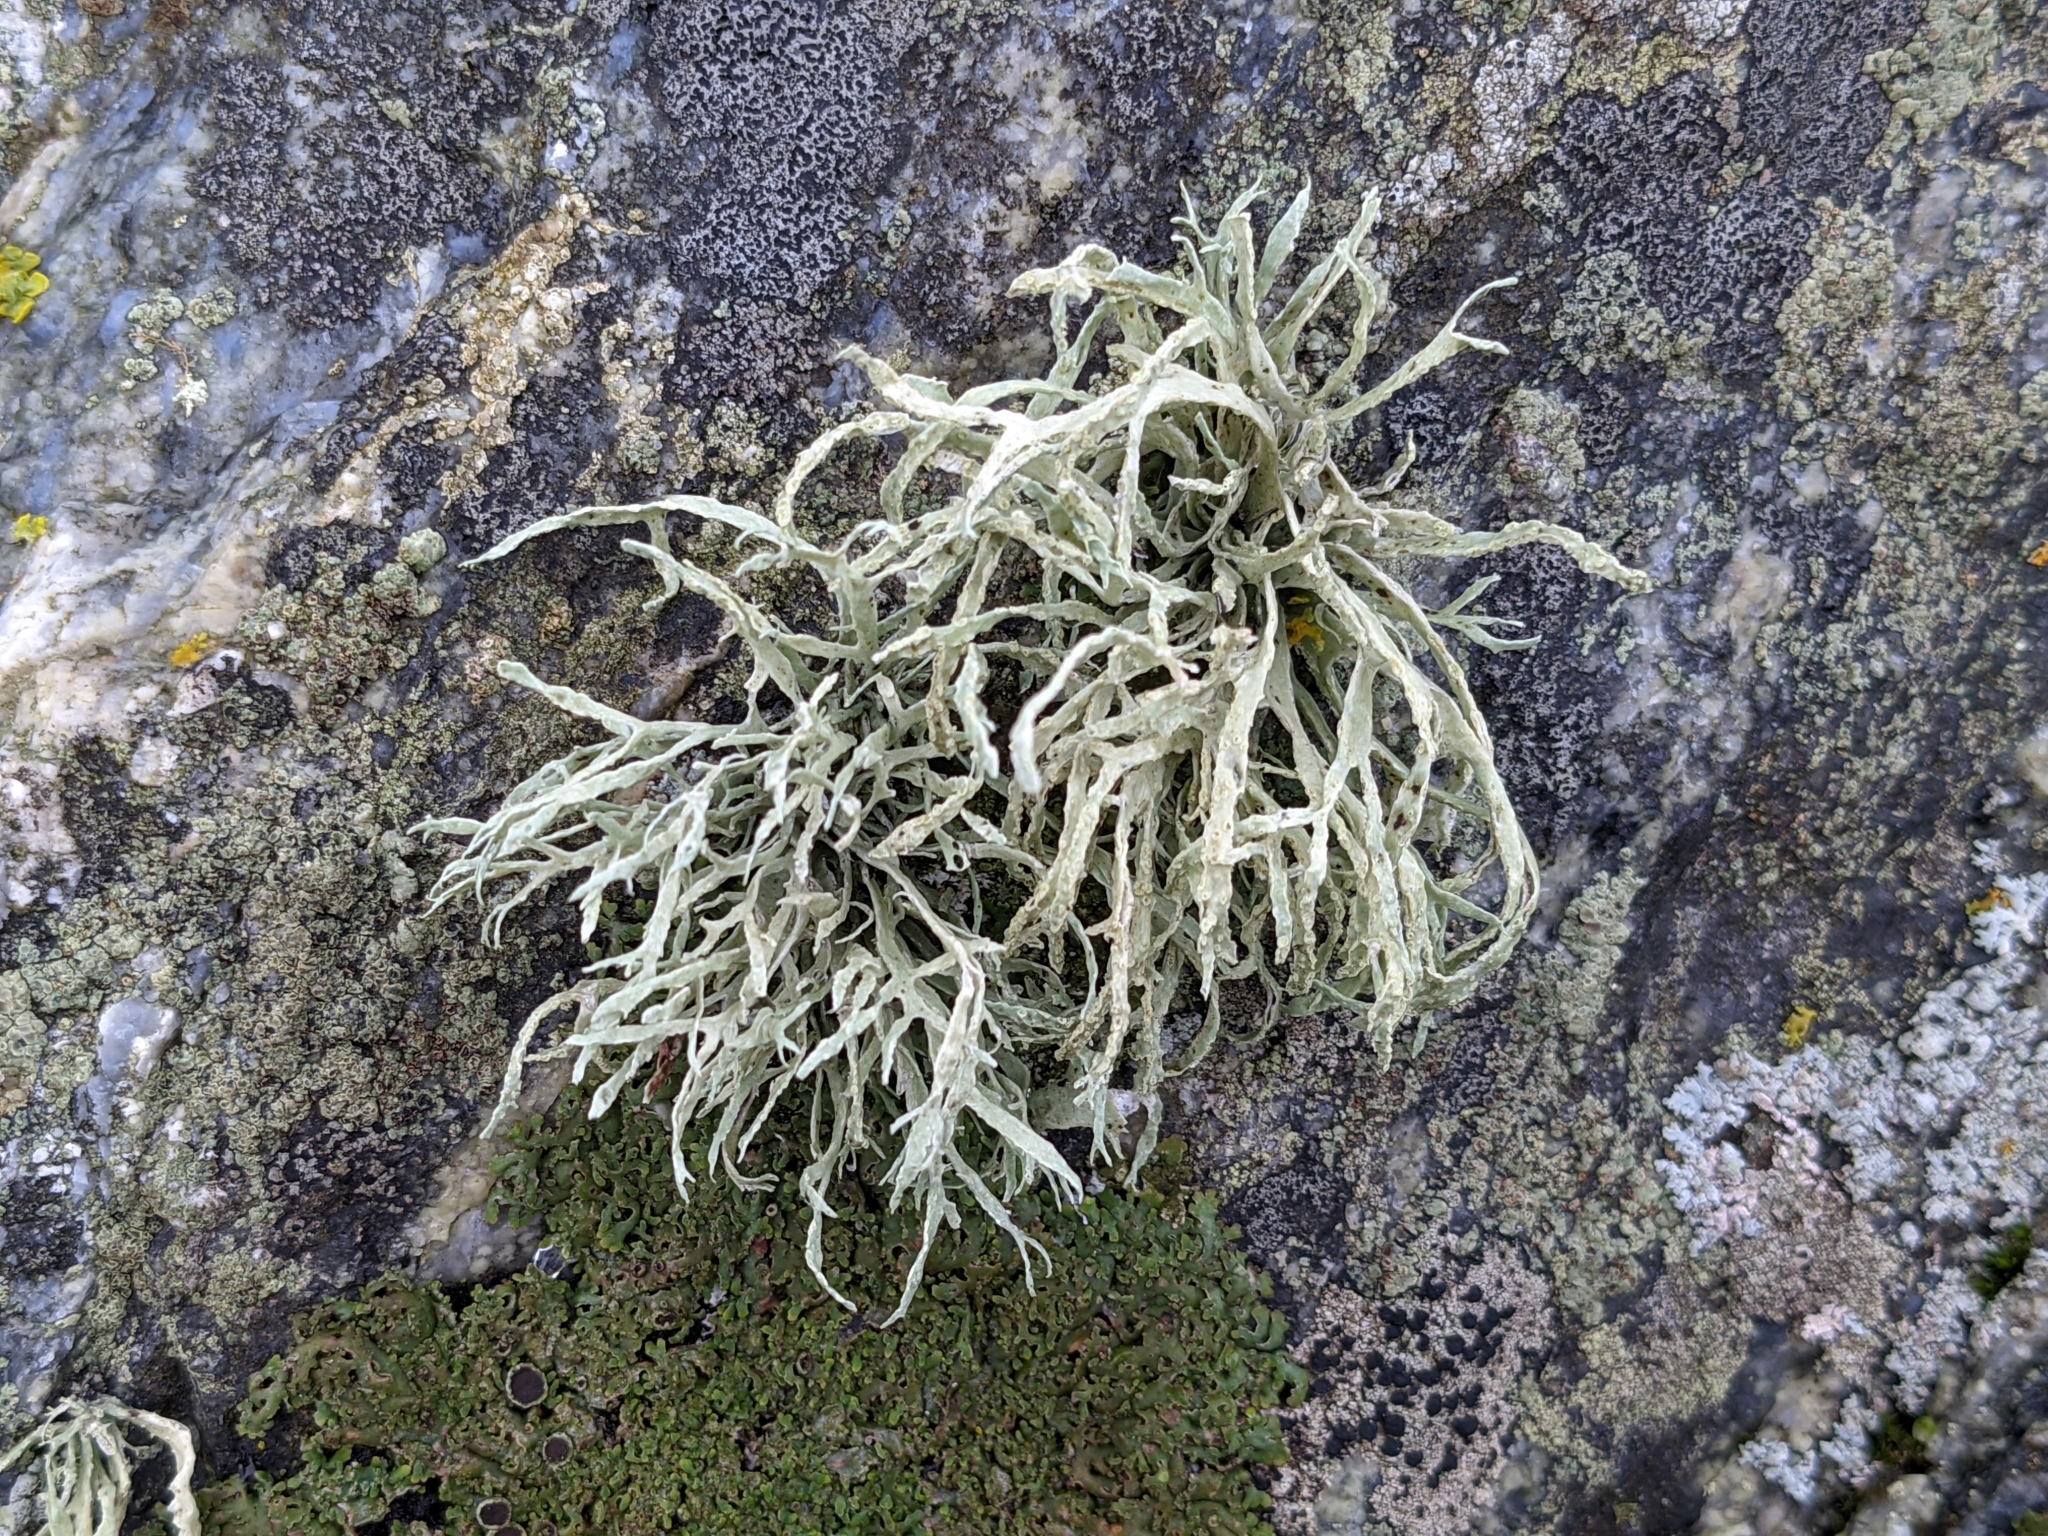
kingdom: Fungi
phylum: Ascomycota
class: Lecanoromycetes
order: Lecanorales
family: Ramalinaceae
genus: Ramalina
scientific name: Ramalina farinacea
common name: Farinose cartilage lichen
